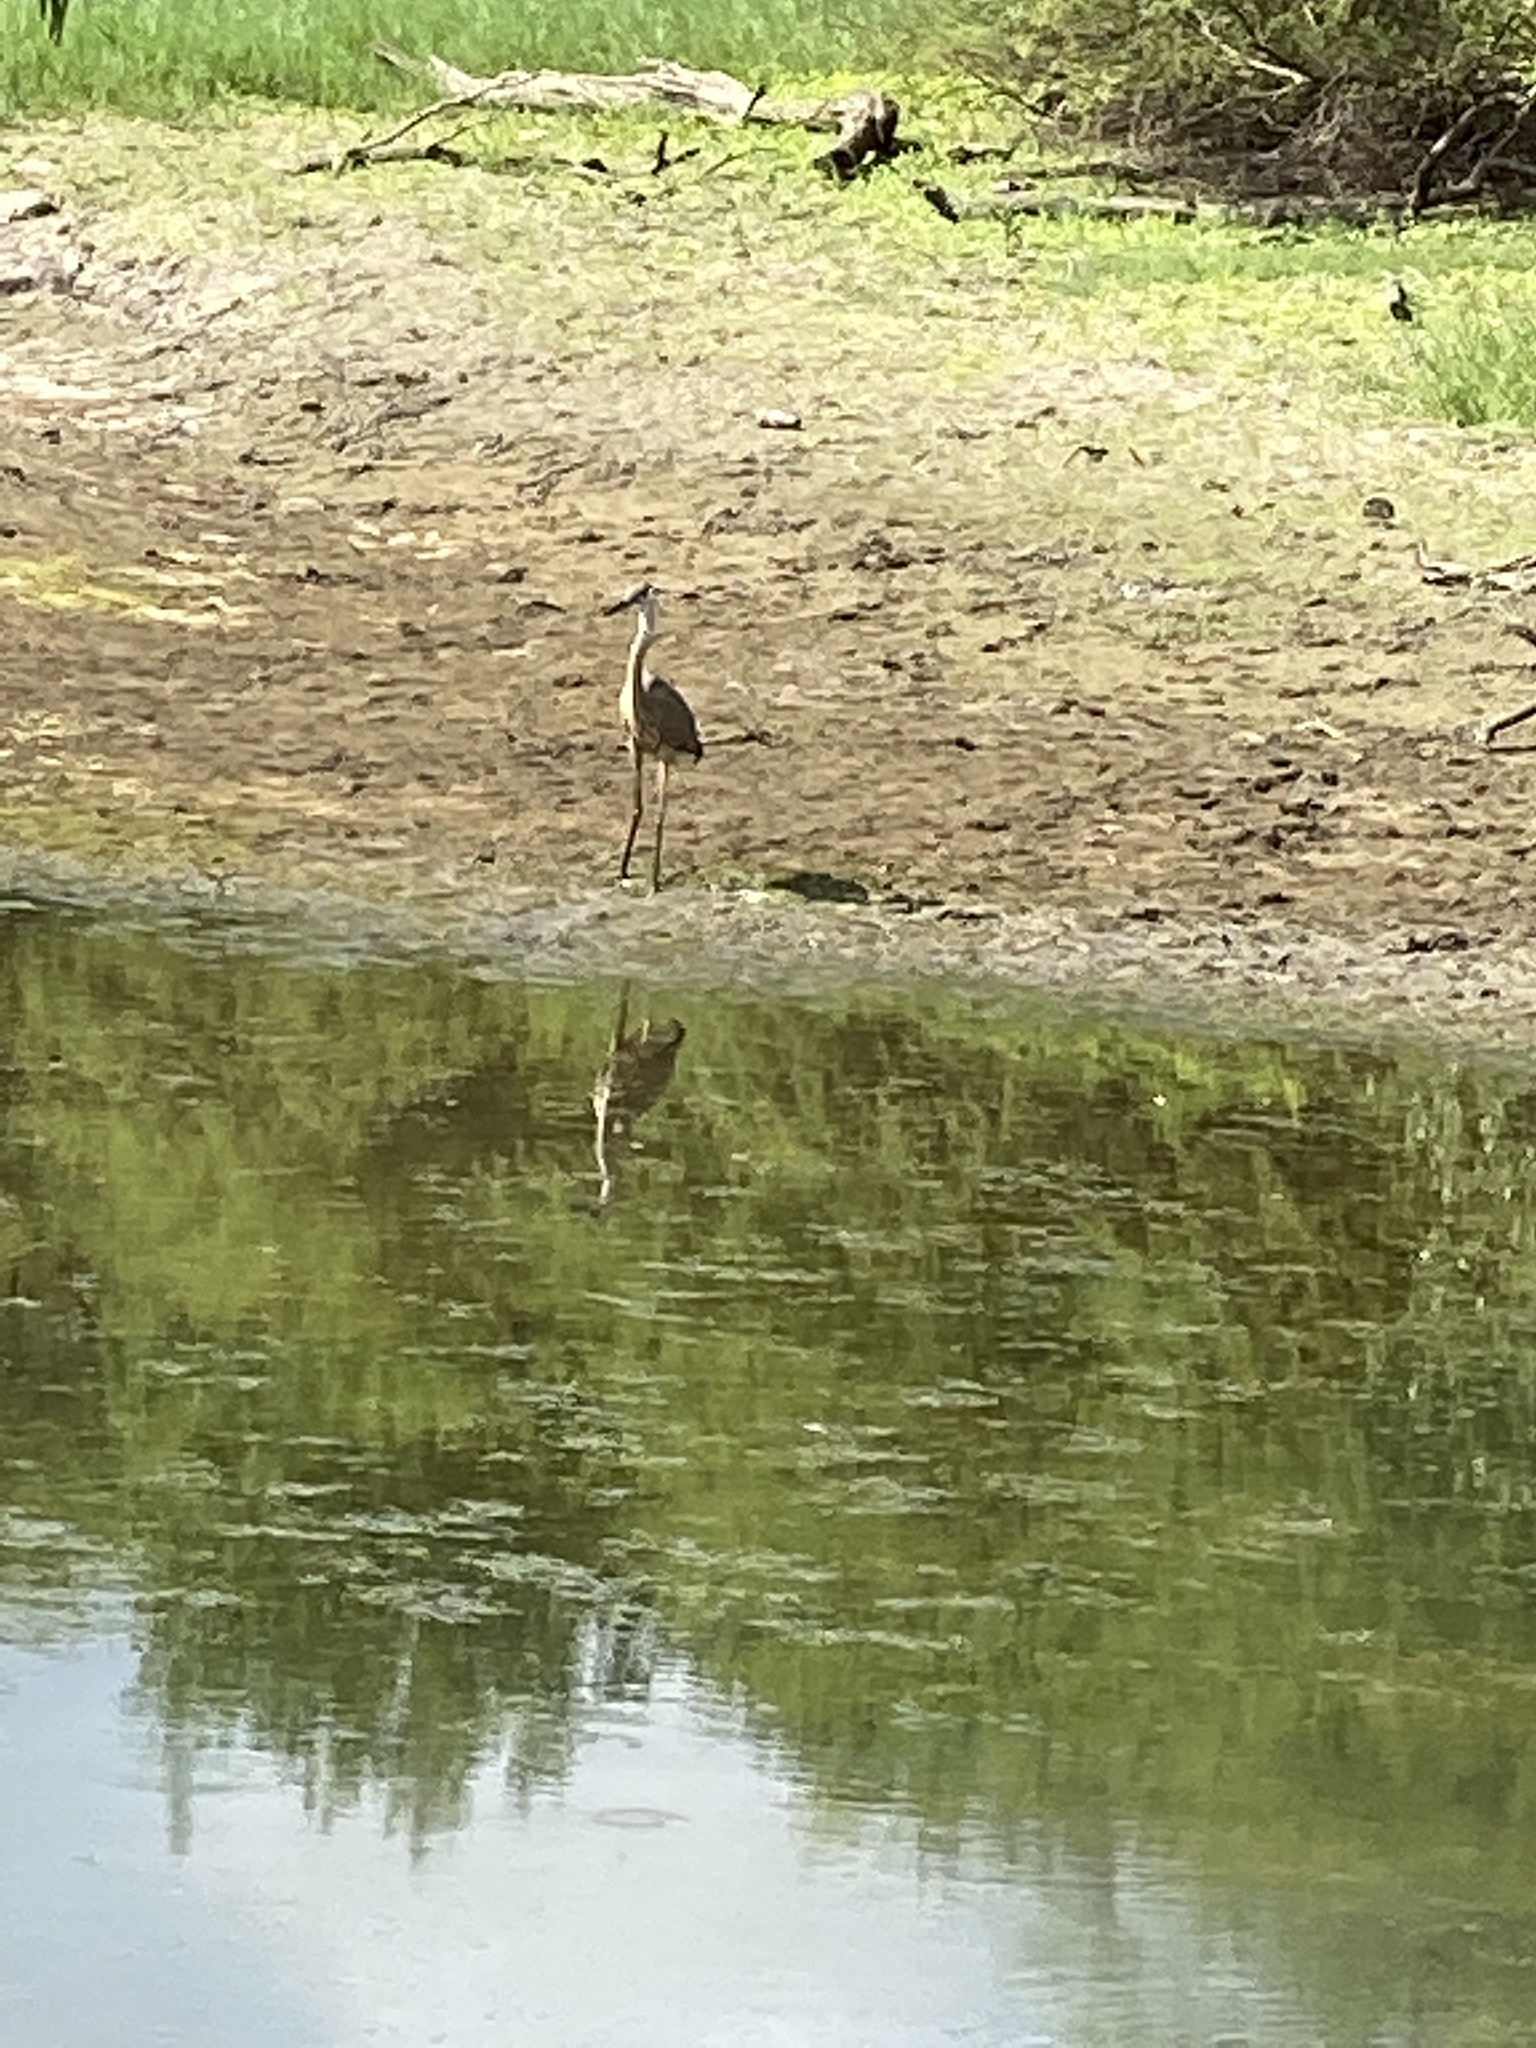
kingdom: Animalia
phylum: Chordata
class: Aves
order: Pelecaniformes
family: Ardeidae
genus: Ardea
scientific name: Ardea herodias
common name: Great blue heron
